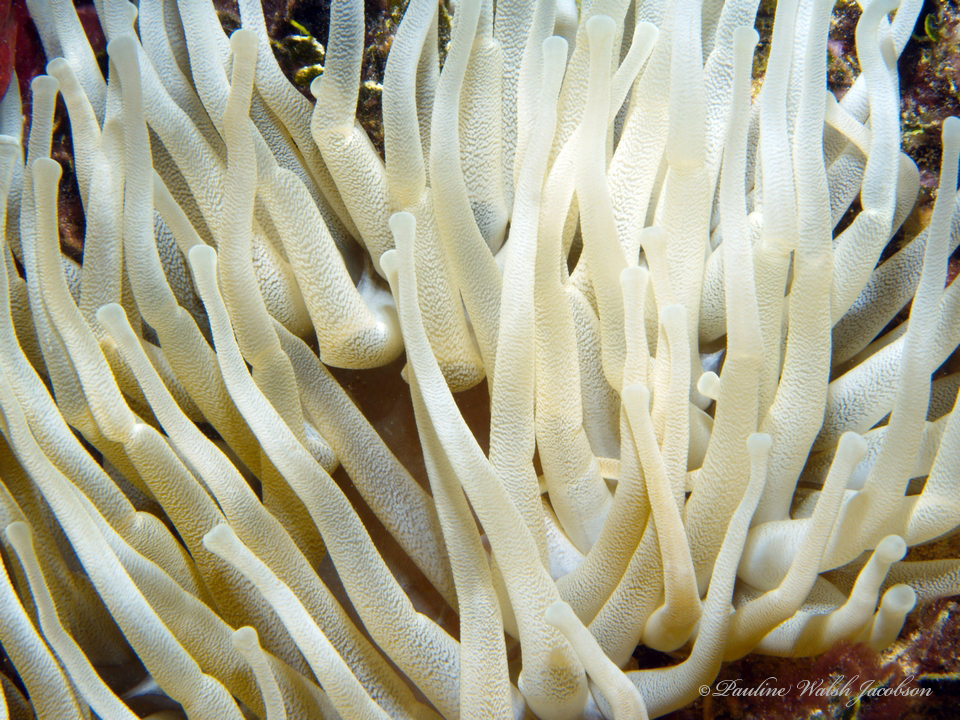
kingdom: Animalia
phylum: Cnidaria
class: Anthozoa
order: Actiniaria
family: Actiniidae
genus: Condylactis
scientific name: Condylactis gigantea
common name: Giant caribbean anemone
